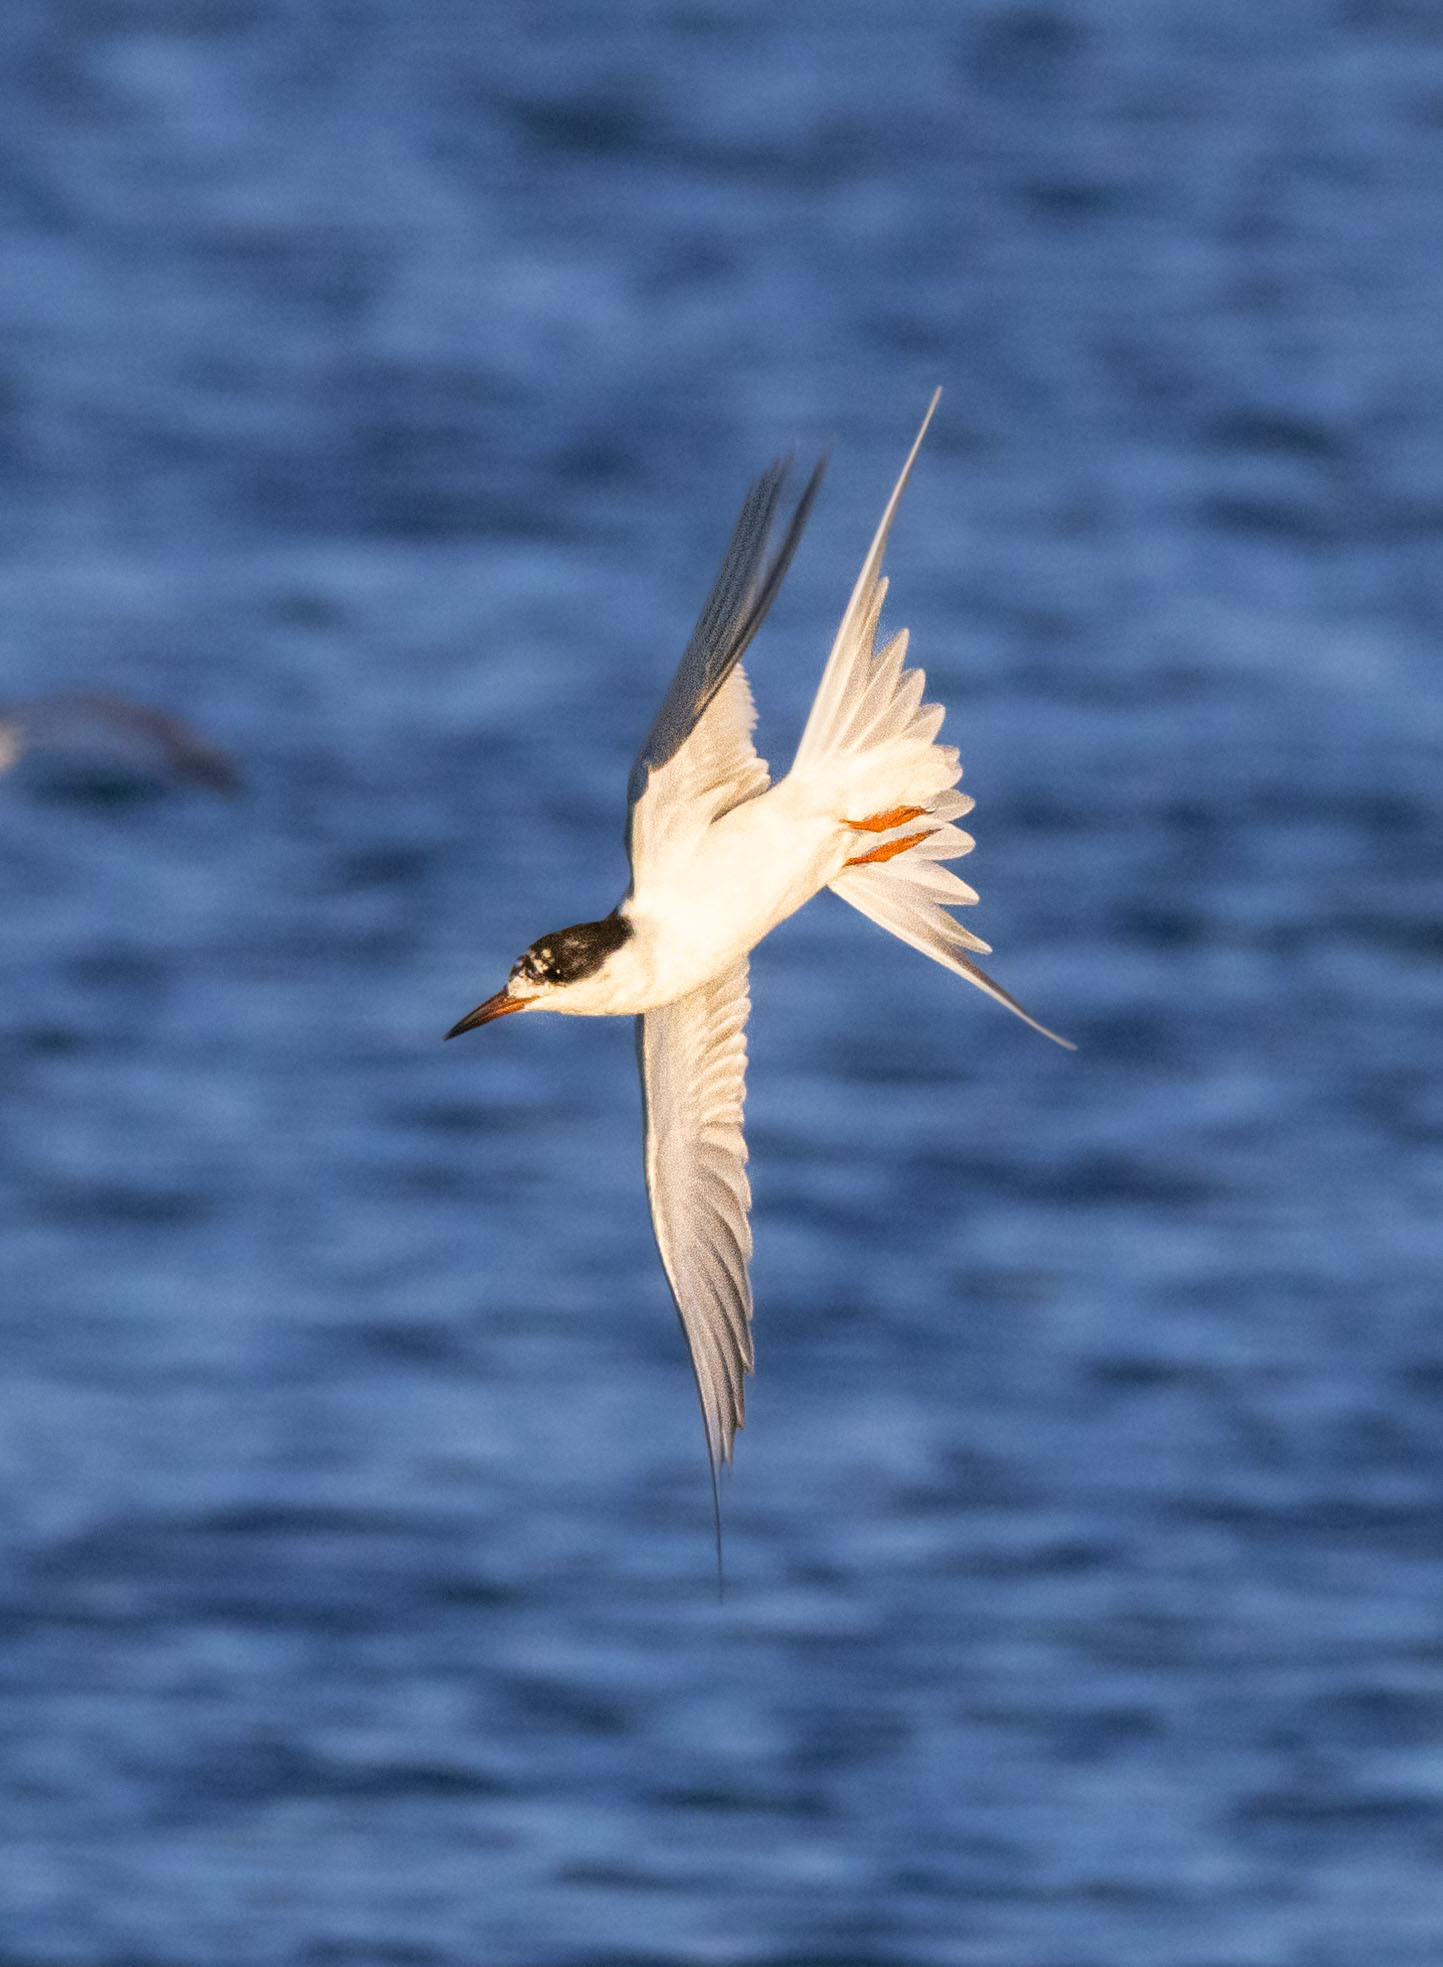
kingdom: Animalia
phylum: Chordata
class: Aves
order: Charadriiformes
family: Laridae
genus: Sterna
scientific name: Sterna forsteri
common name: Forster's tern
